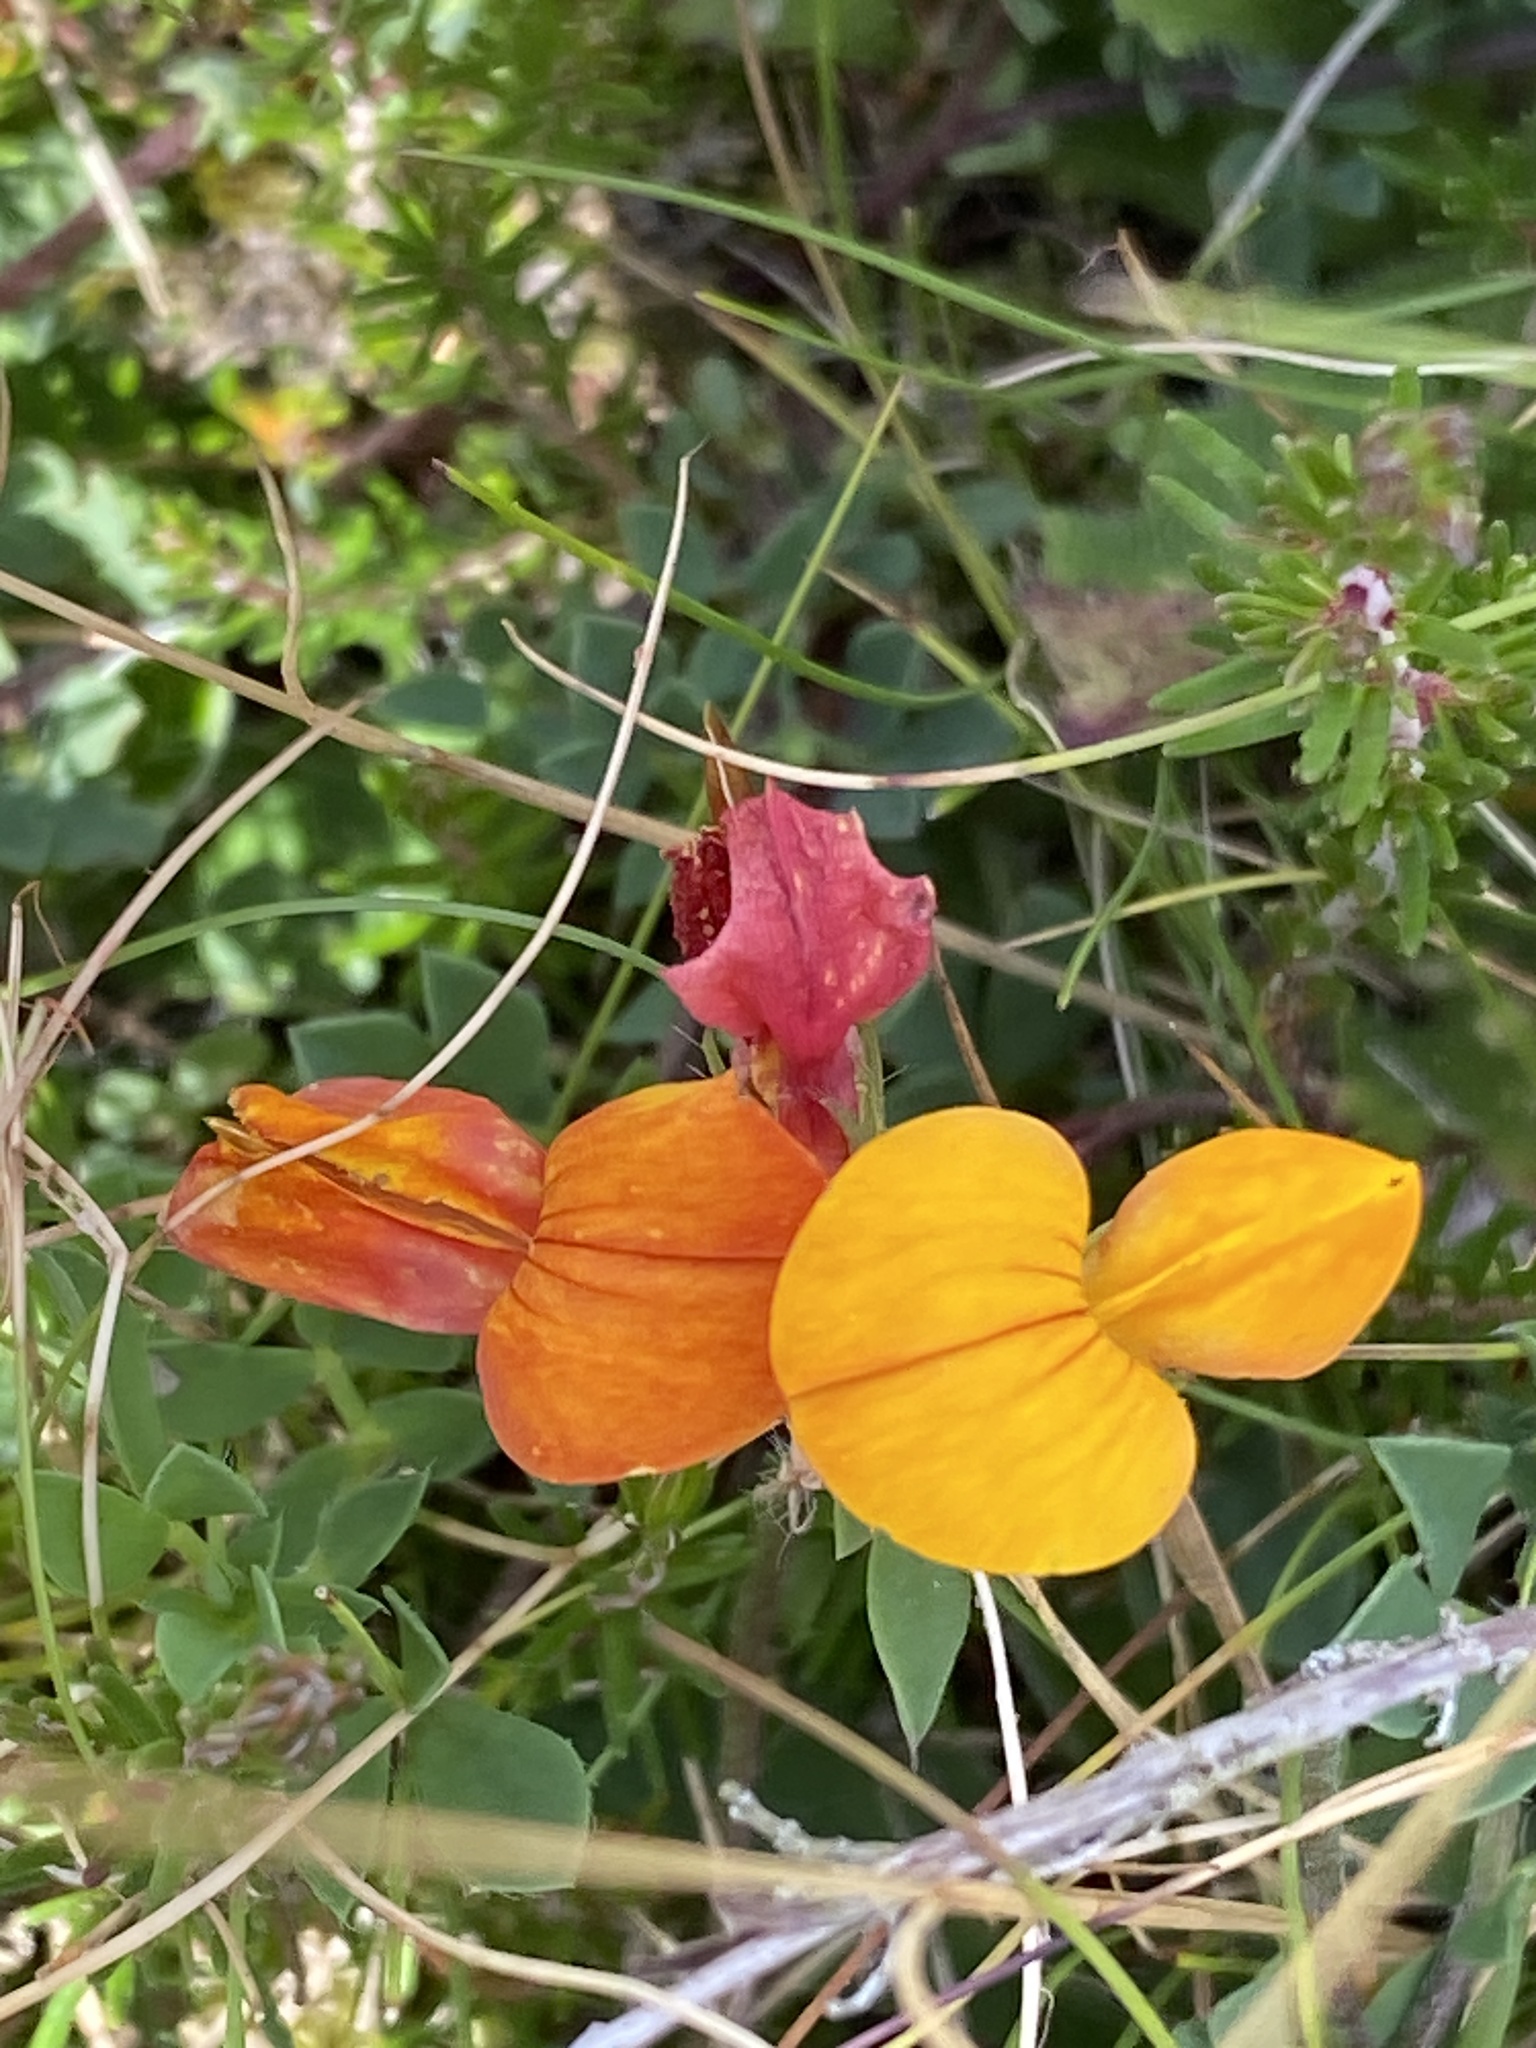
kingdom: Plantae
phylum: Tracheophyta
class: Magnoliopsida
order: Fabales
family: Fabaceae
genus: Lotus
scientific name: Lotus corniculatus
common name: Common bird's-foot-trefoil
